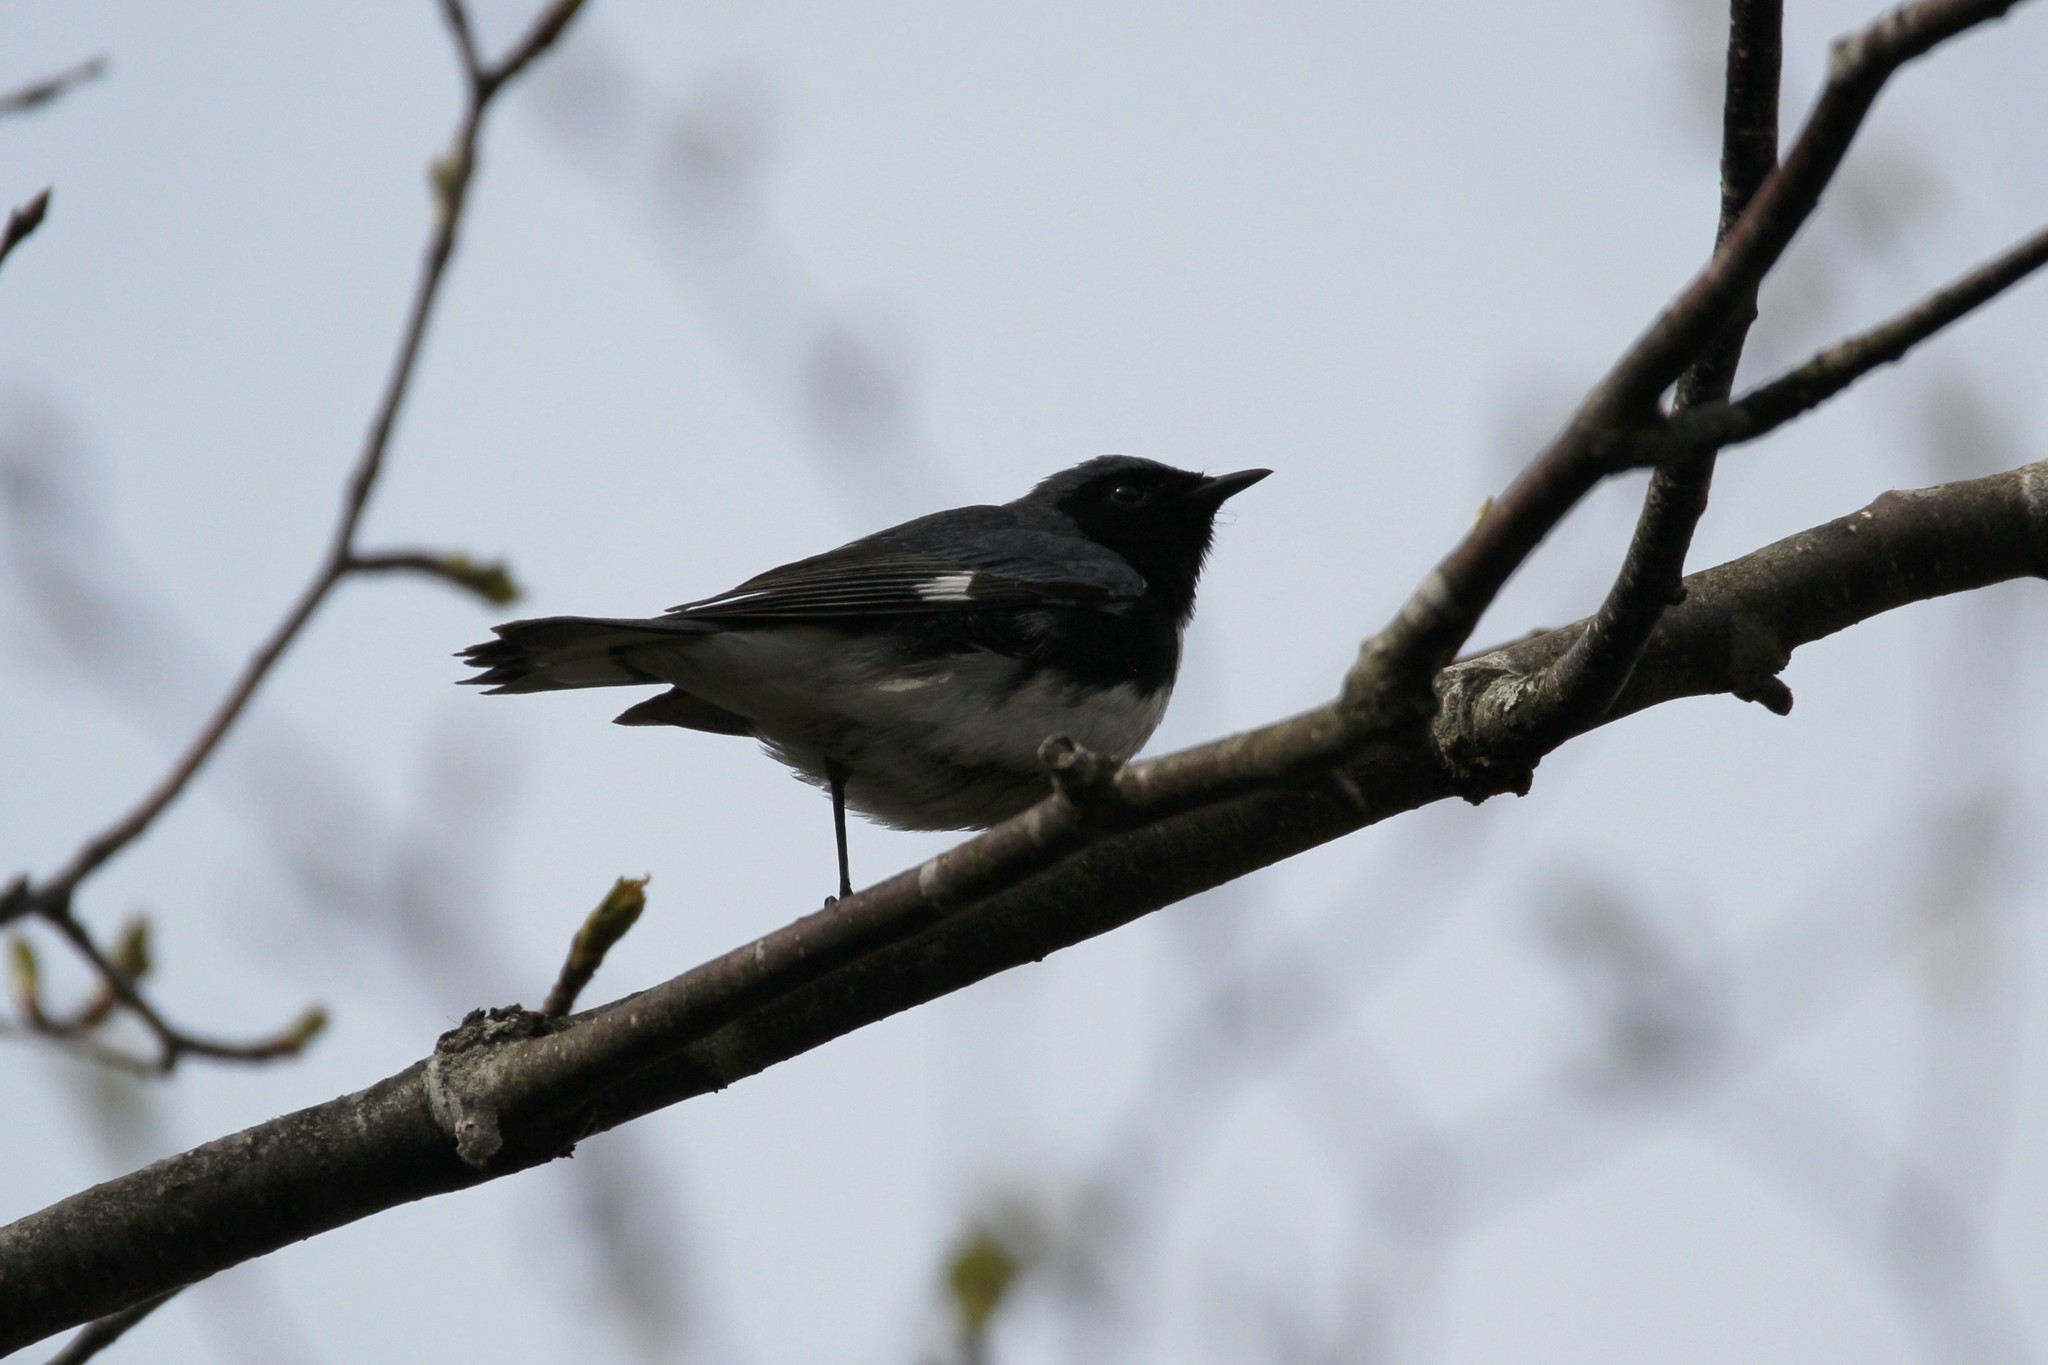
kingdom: Animalia
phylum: Chordata
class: Aves
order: Passeriformes
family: Parulidae
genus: Setophaga
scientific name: Setophaga caerulescens
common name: Black-throated blue warbler
